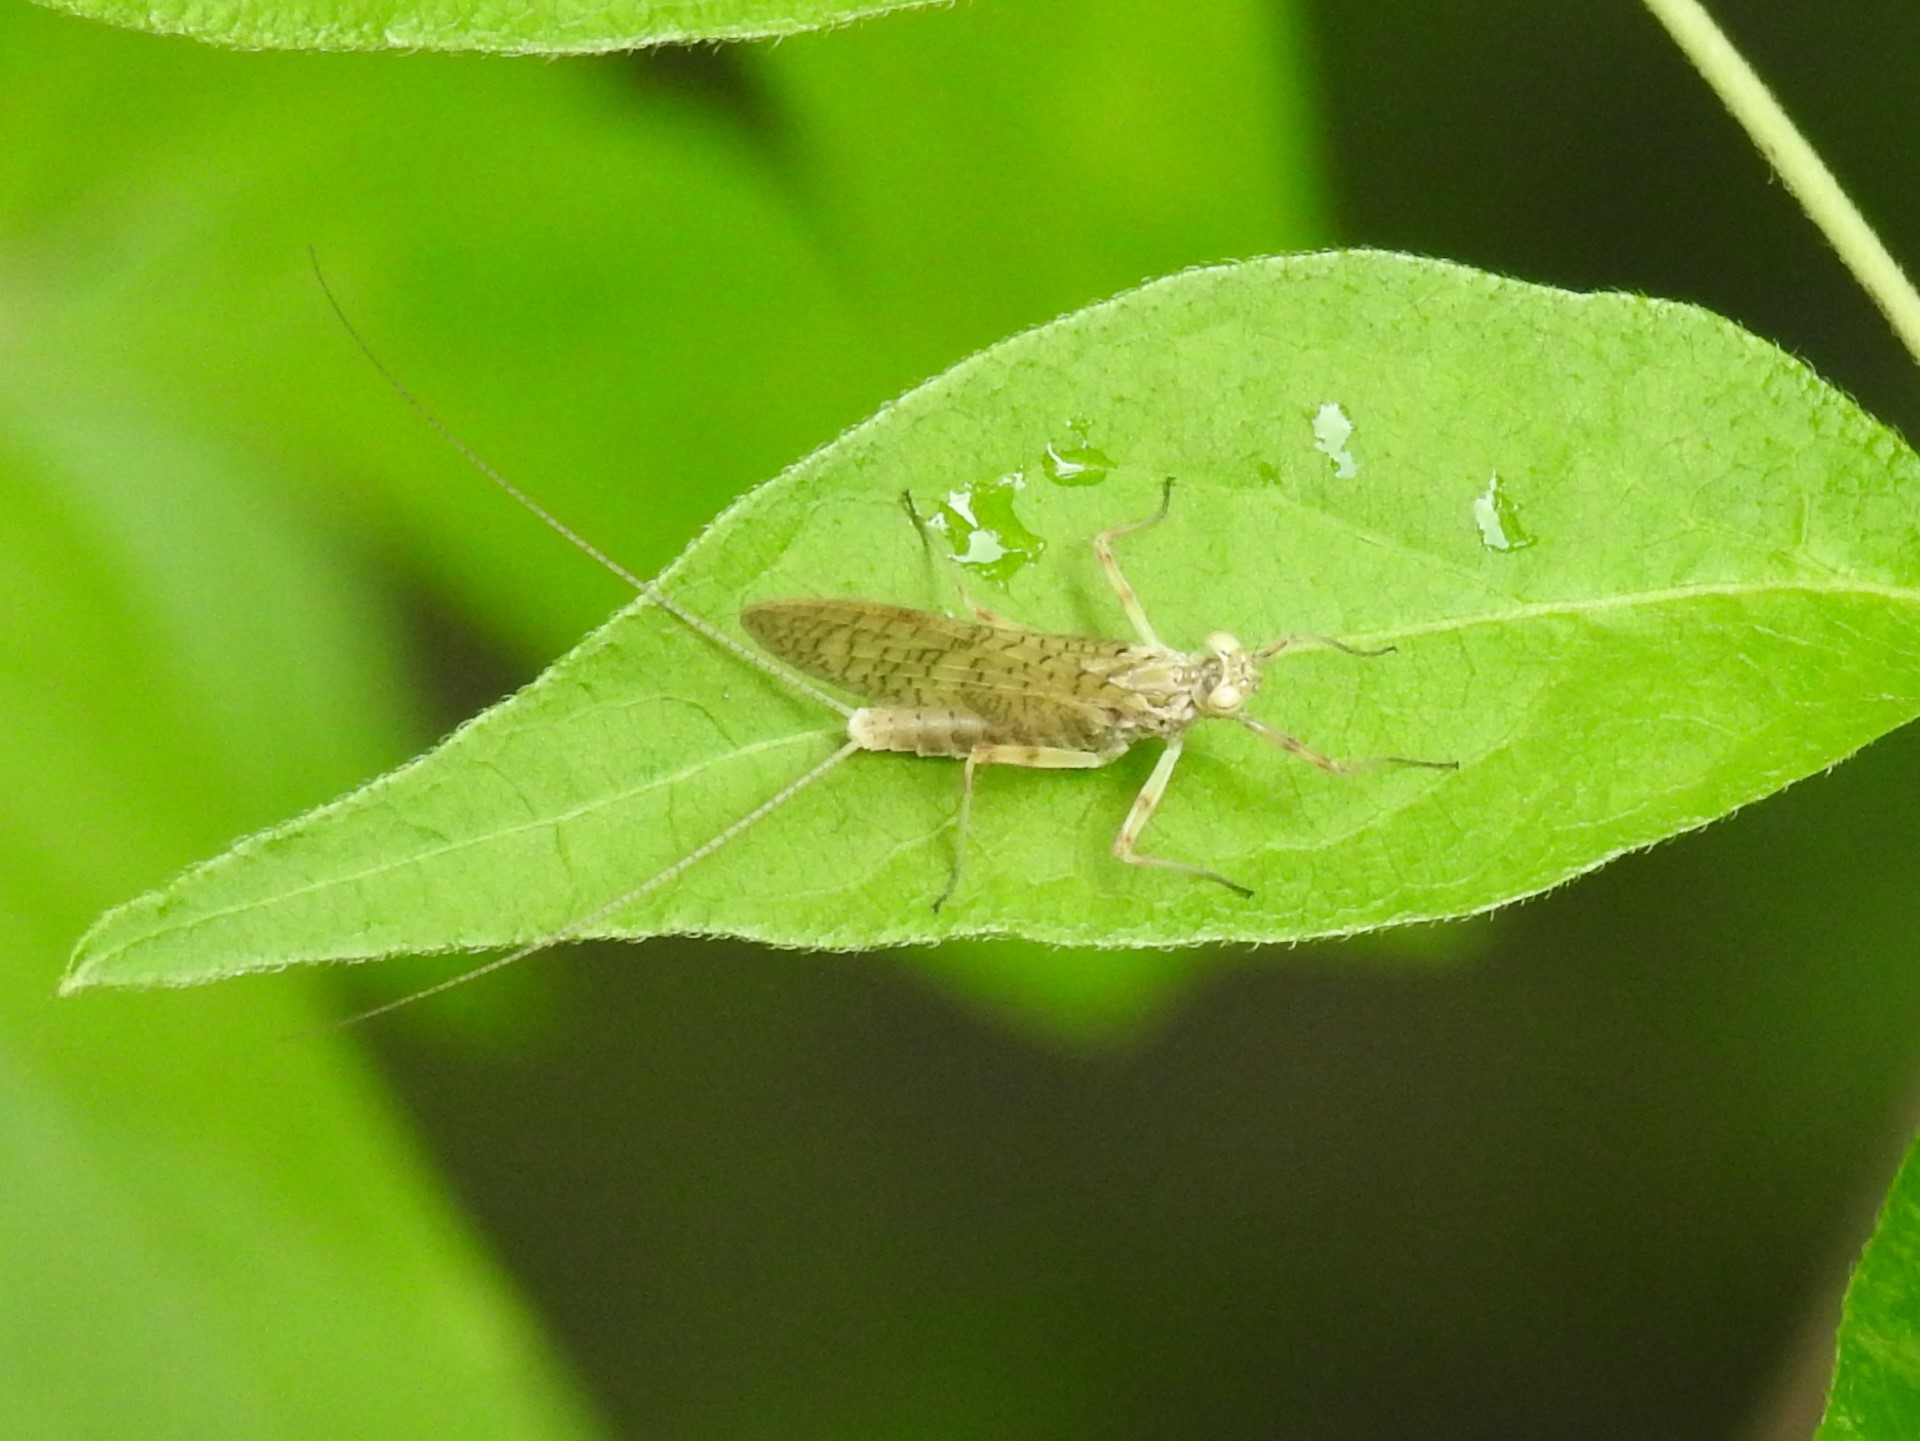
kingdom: Animalia
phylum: Arthropoda
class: Insecta
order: Ephemeroptera
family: Heptageniidae
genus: Stenonema
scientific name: Stenonema femoratum
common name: Dark cahill
